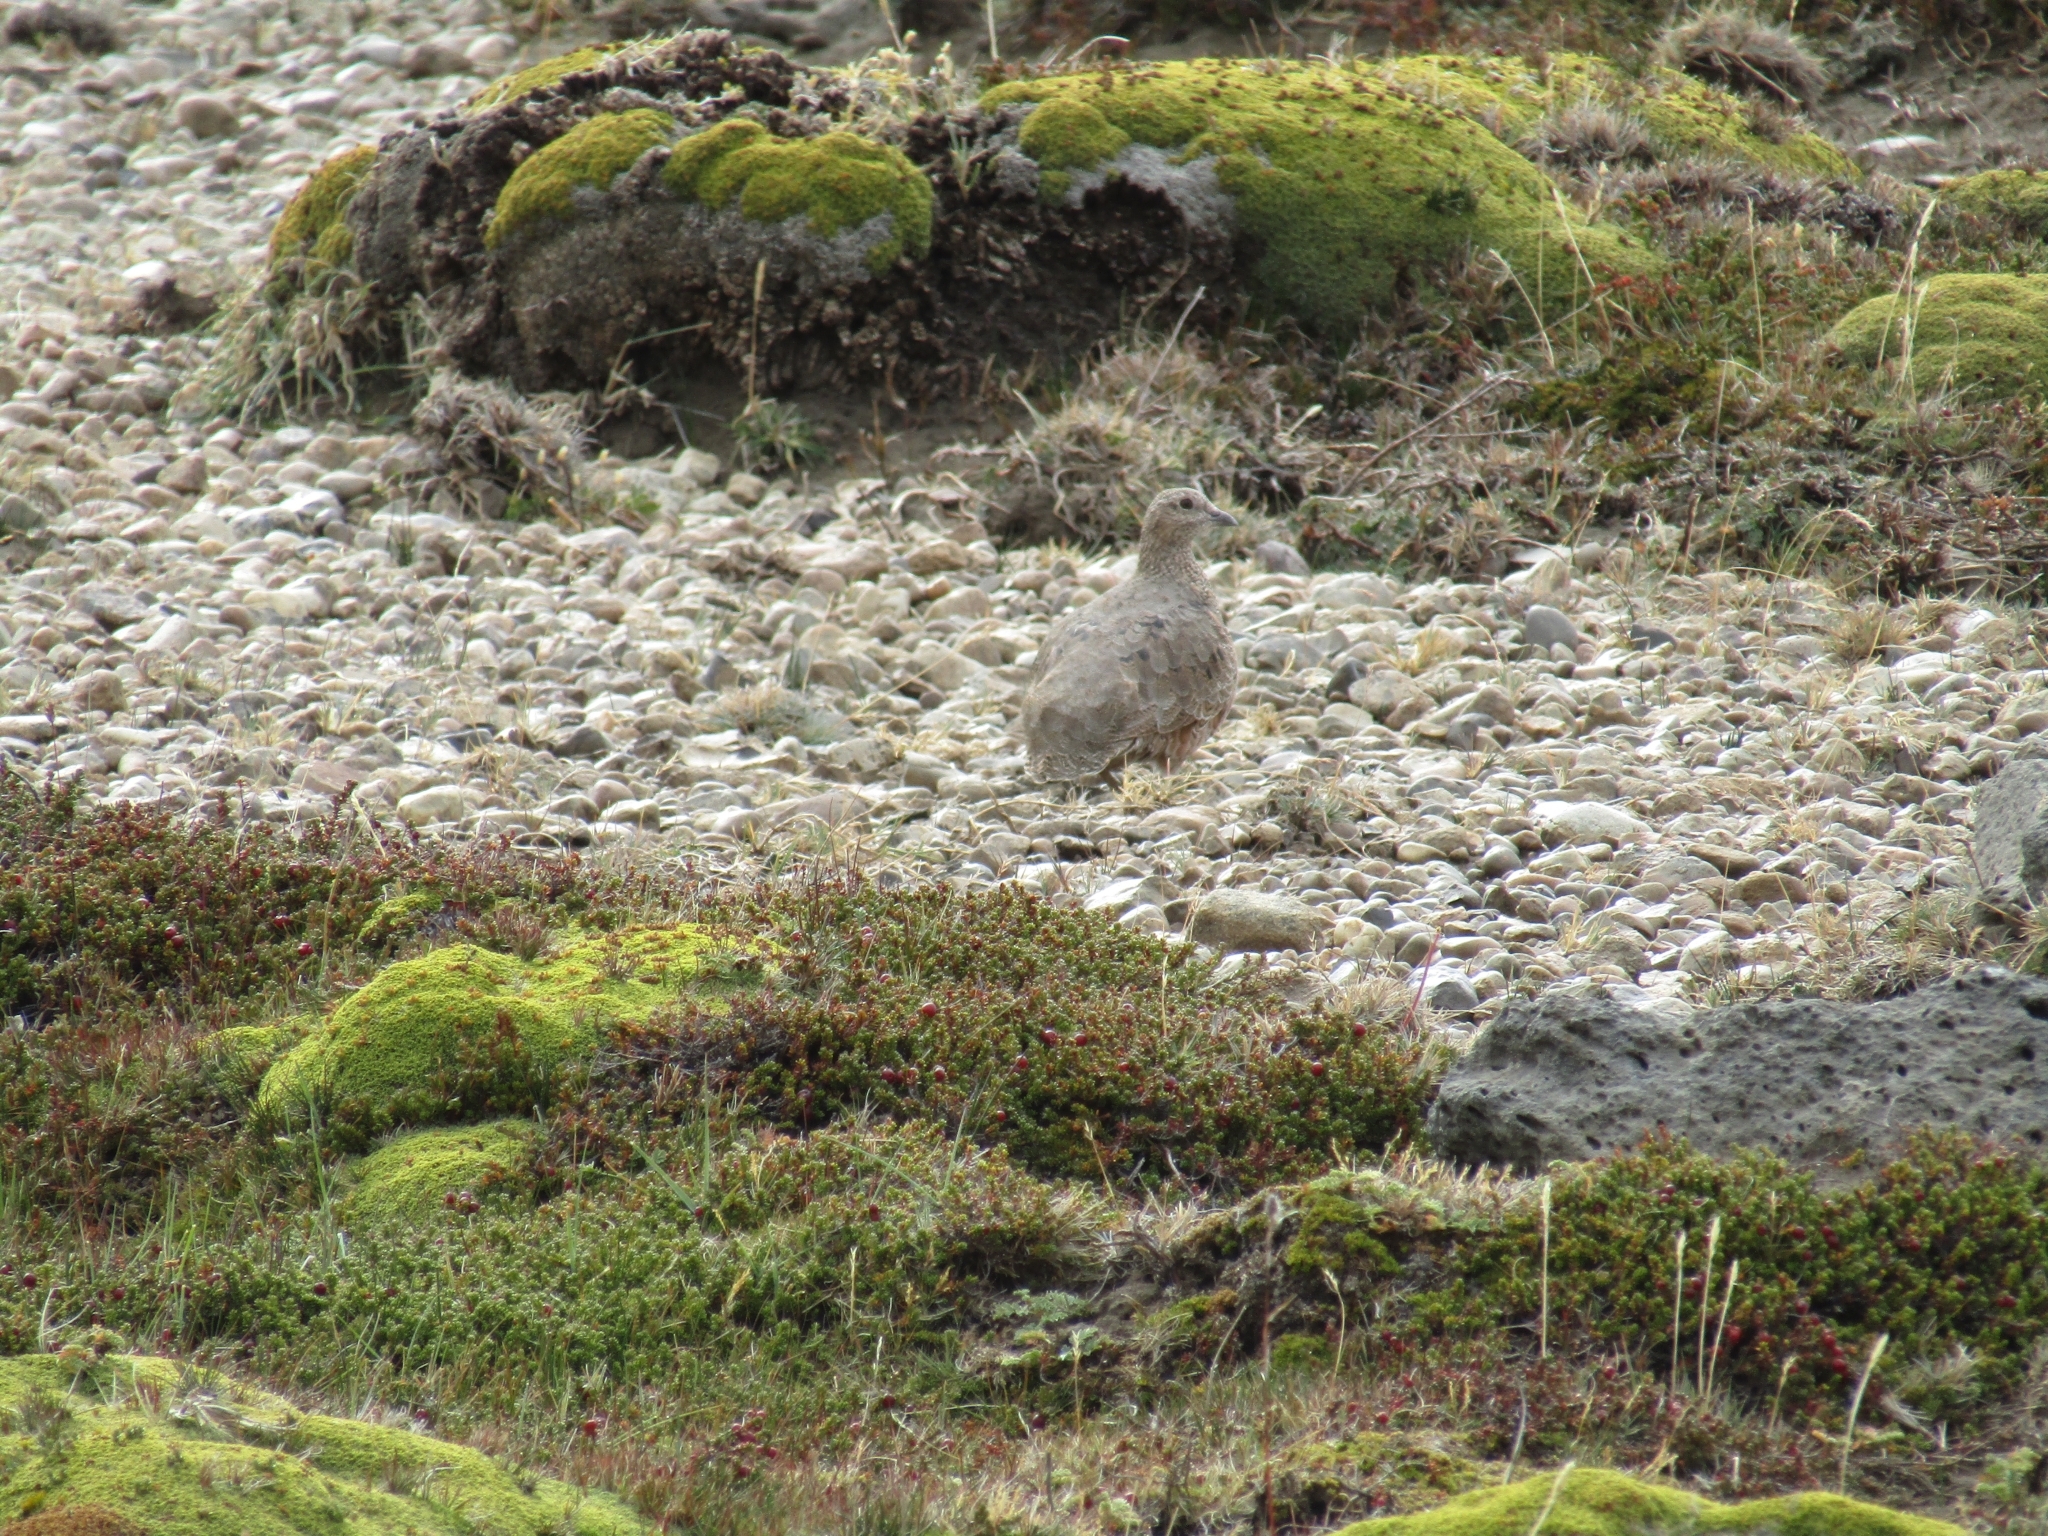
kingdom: Animalia
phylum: Chordata
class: Aves
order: Charadriiformes
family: Thinocoridae
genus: Attagis
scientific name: Attagis gayi
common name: Rufous-bellied seedsnipe
